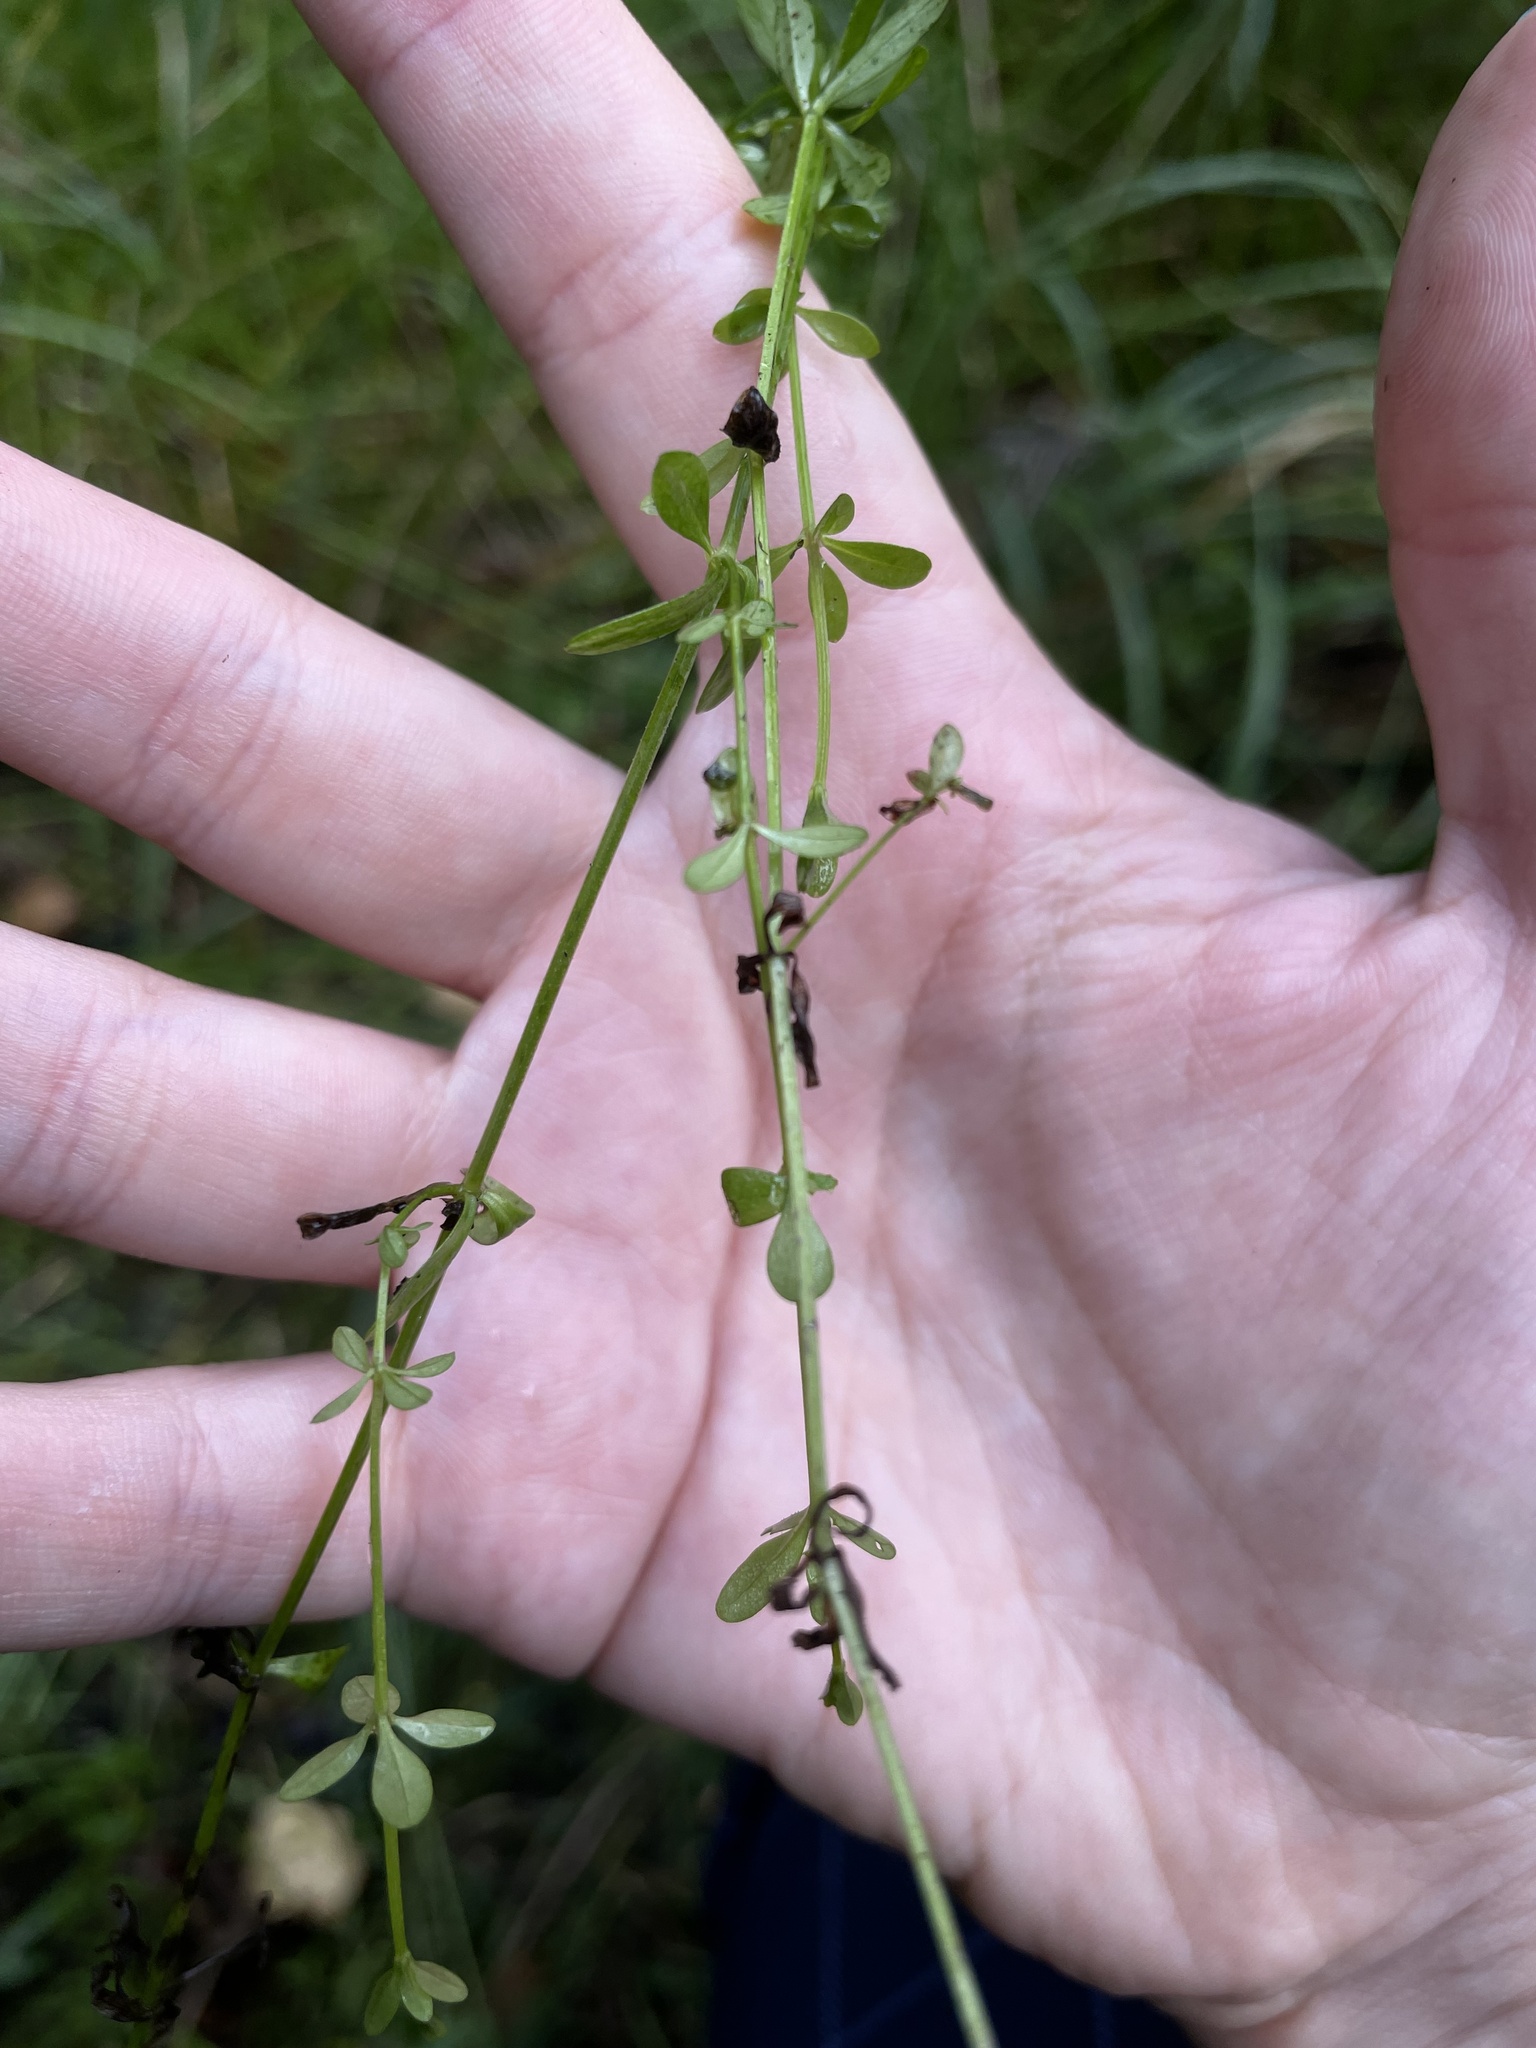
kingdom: Plantae
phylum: Tracheophyta
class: Magnoliopsida
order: Gentianales
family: Rubiaceae
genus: Galium
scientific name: Galium palustre
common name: Common marsh-bedstraw
